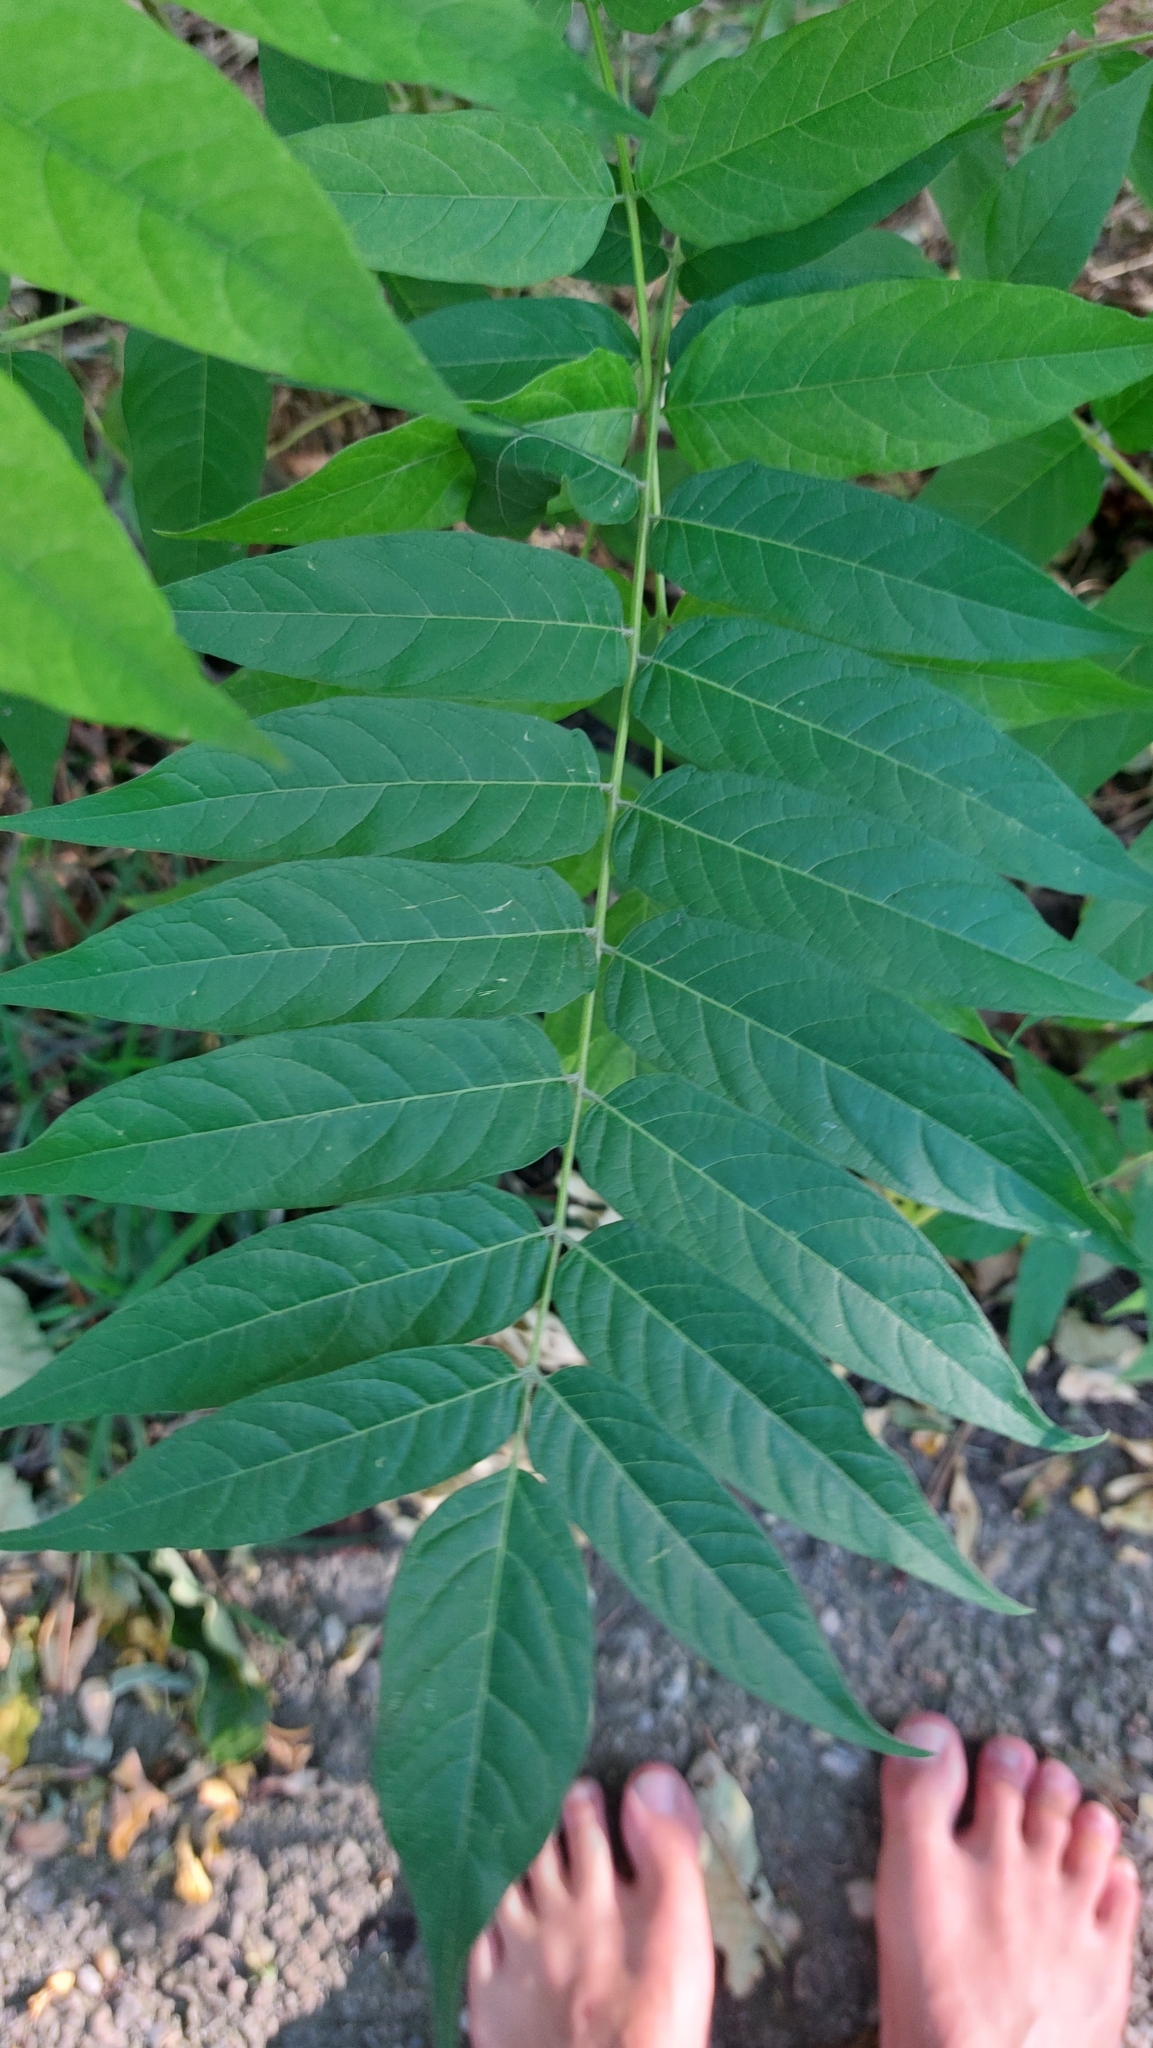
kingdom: Plantae
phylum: Tracheophyta
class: Magnoliopsida
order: Sapindales
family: Simaroubaceae
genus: Ailanthus
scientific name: Ailanthus altissima
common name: Tree-of-heaven
